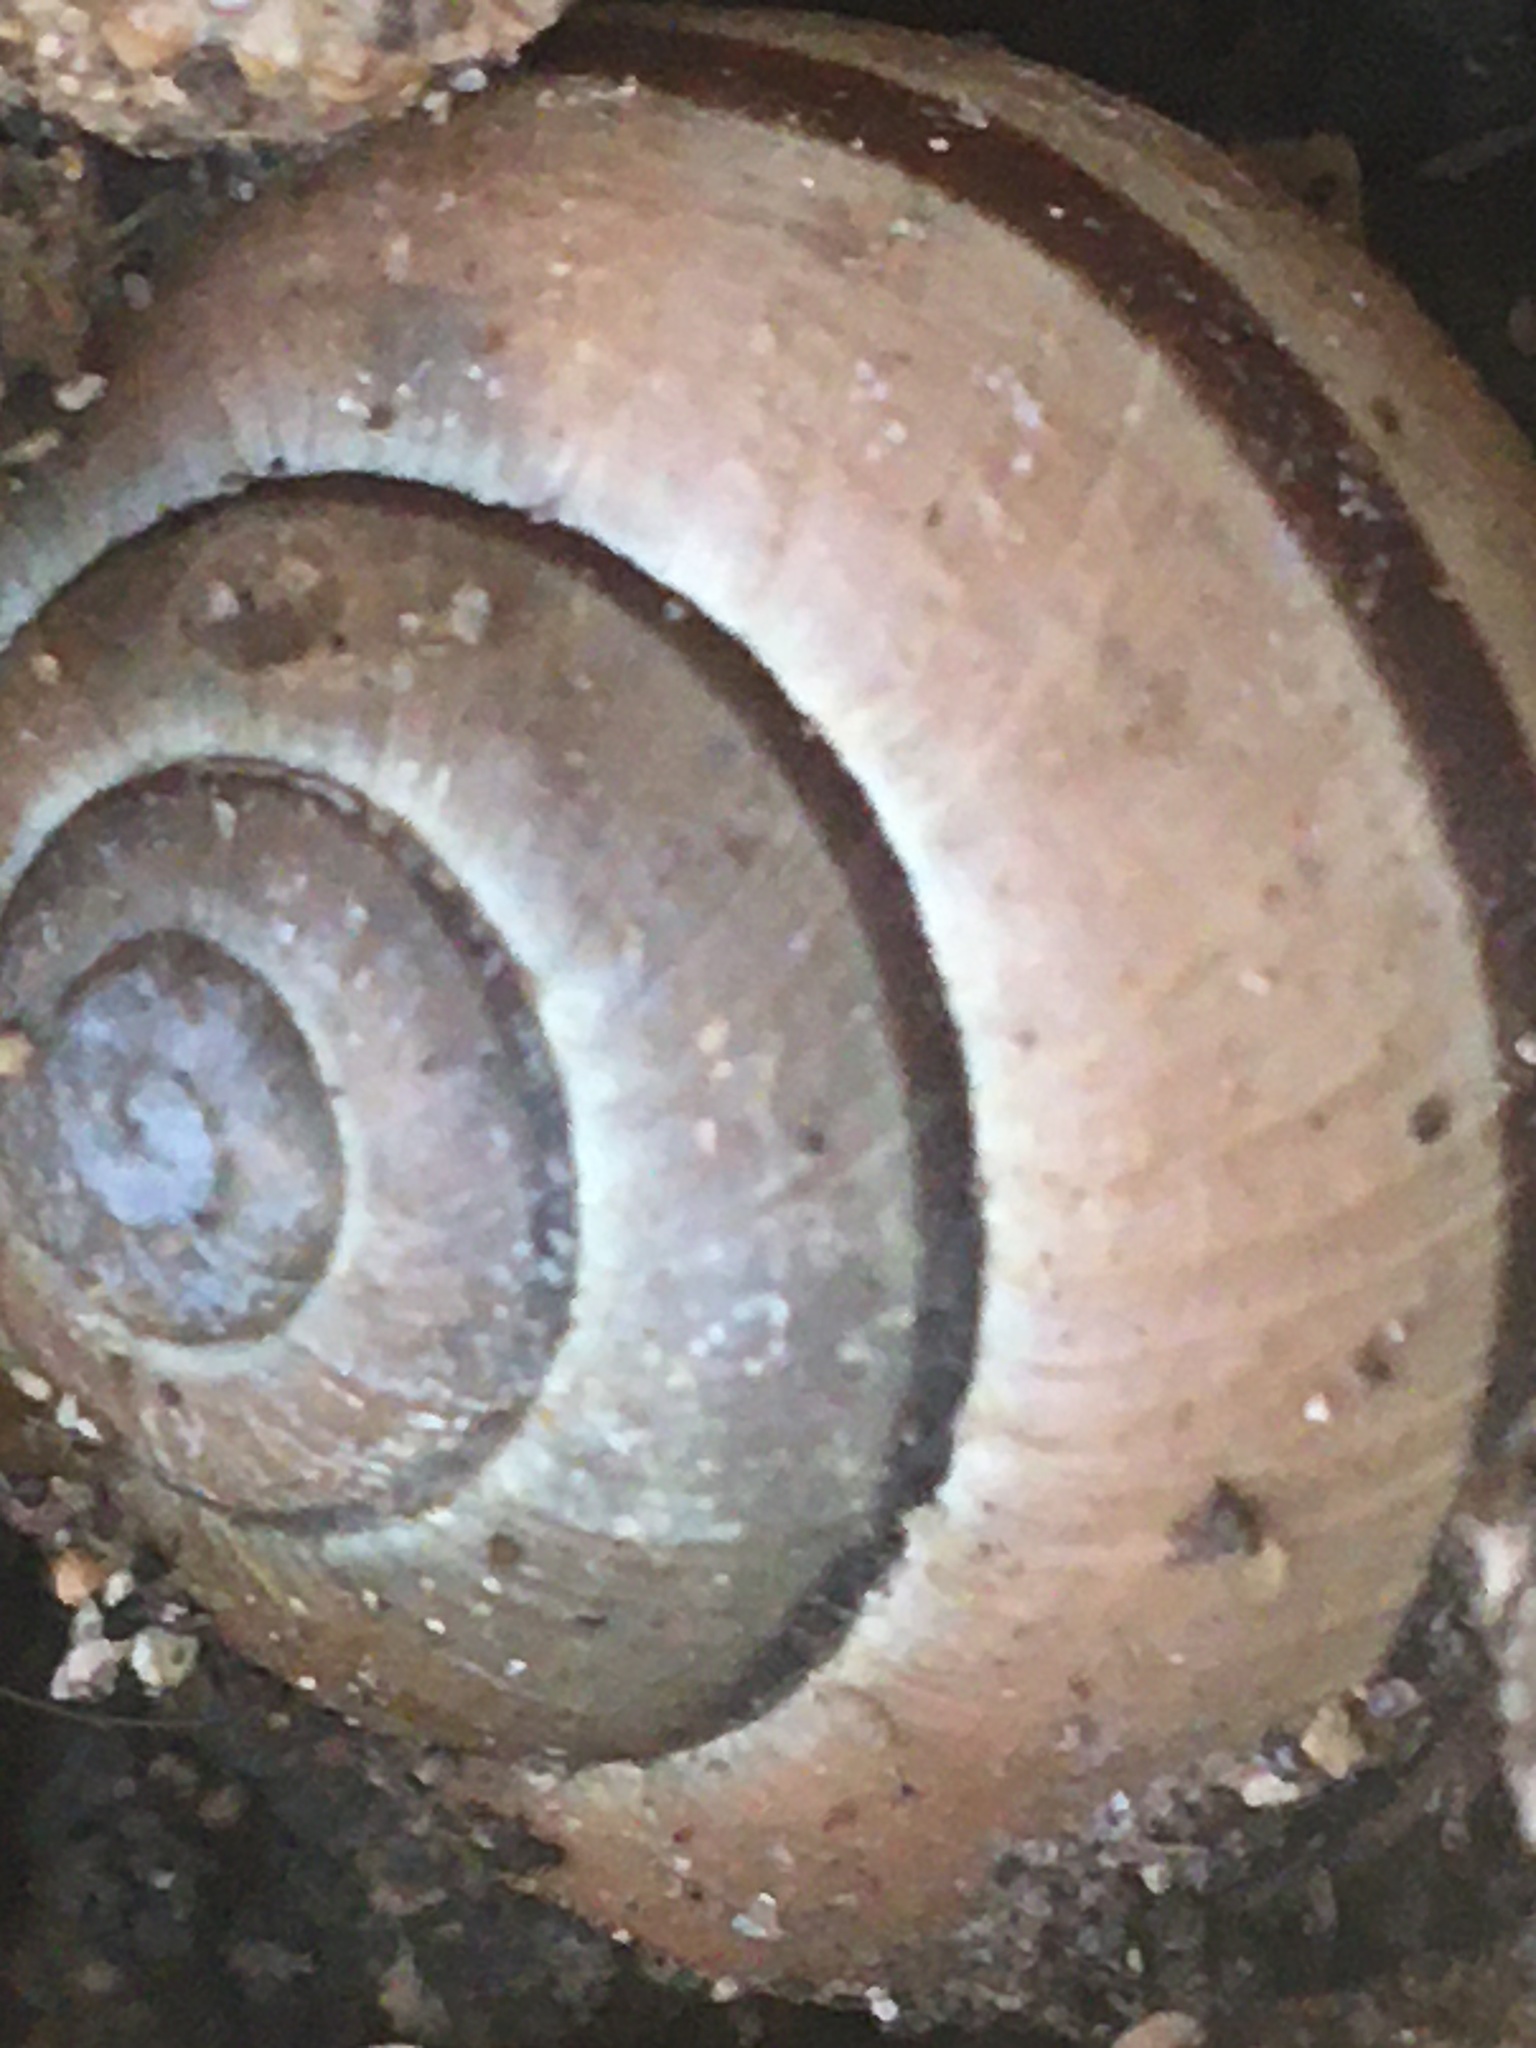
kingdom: Animalia
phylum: Mollusca
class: Gastropoda
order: Stylommatophora
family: Helicidae
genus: Cepaea
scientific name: Cepaea nemoralis
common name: Grovesnail
